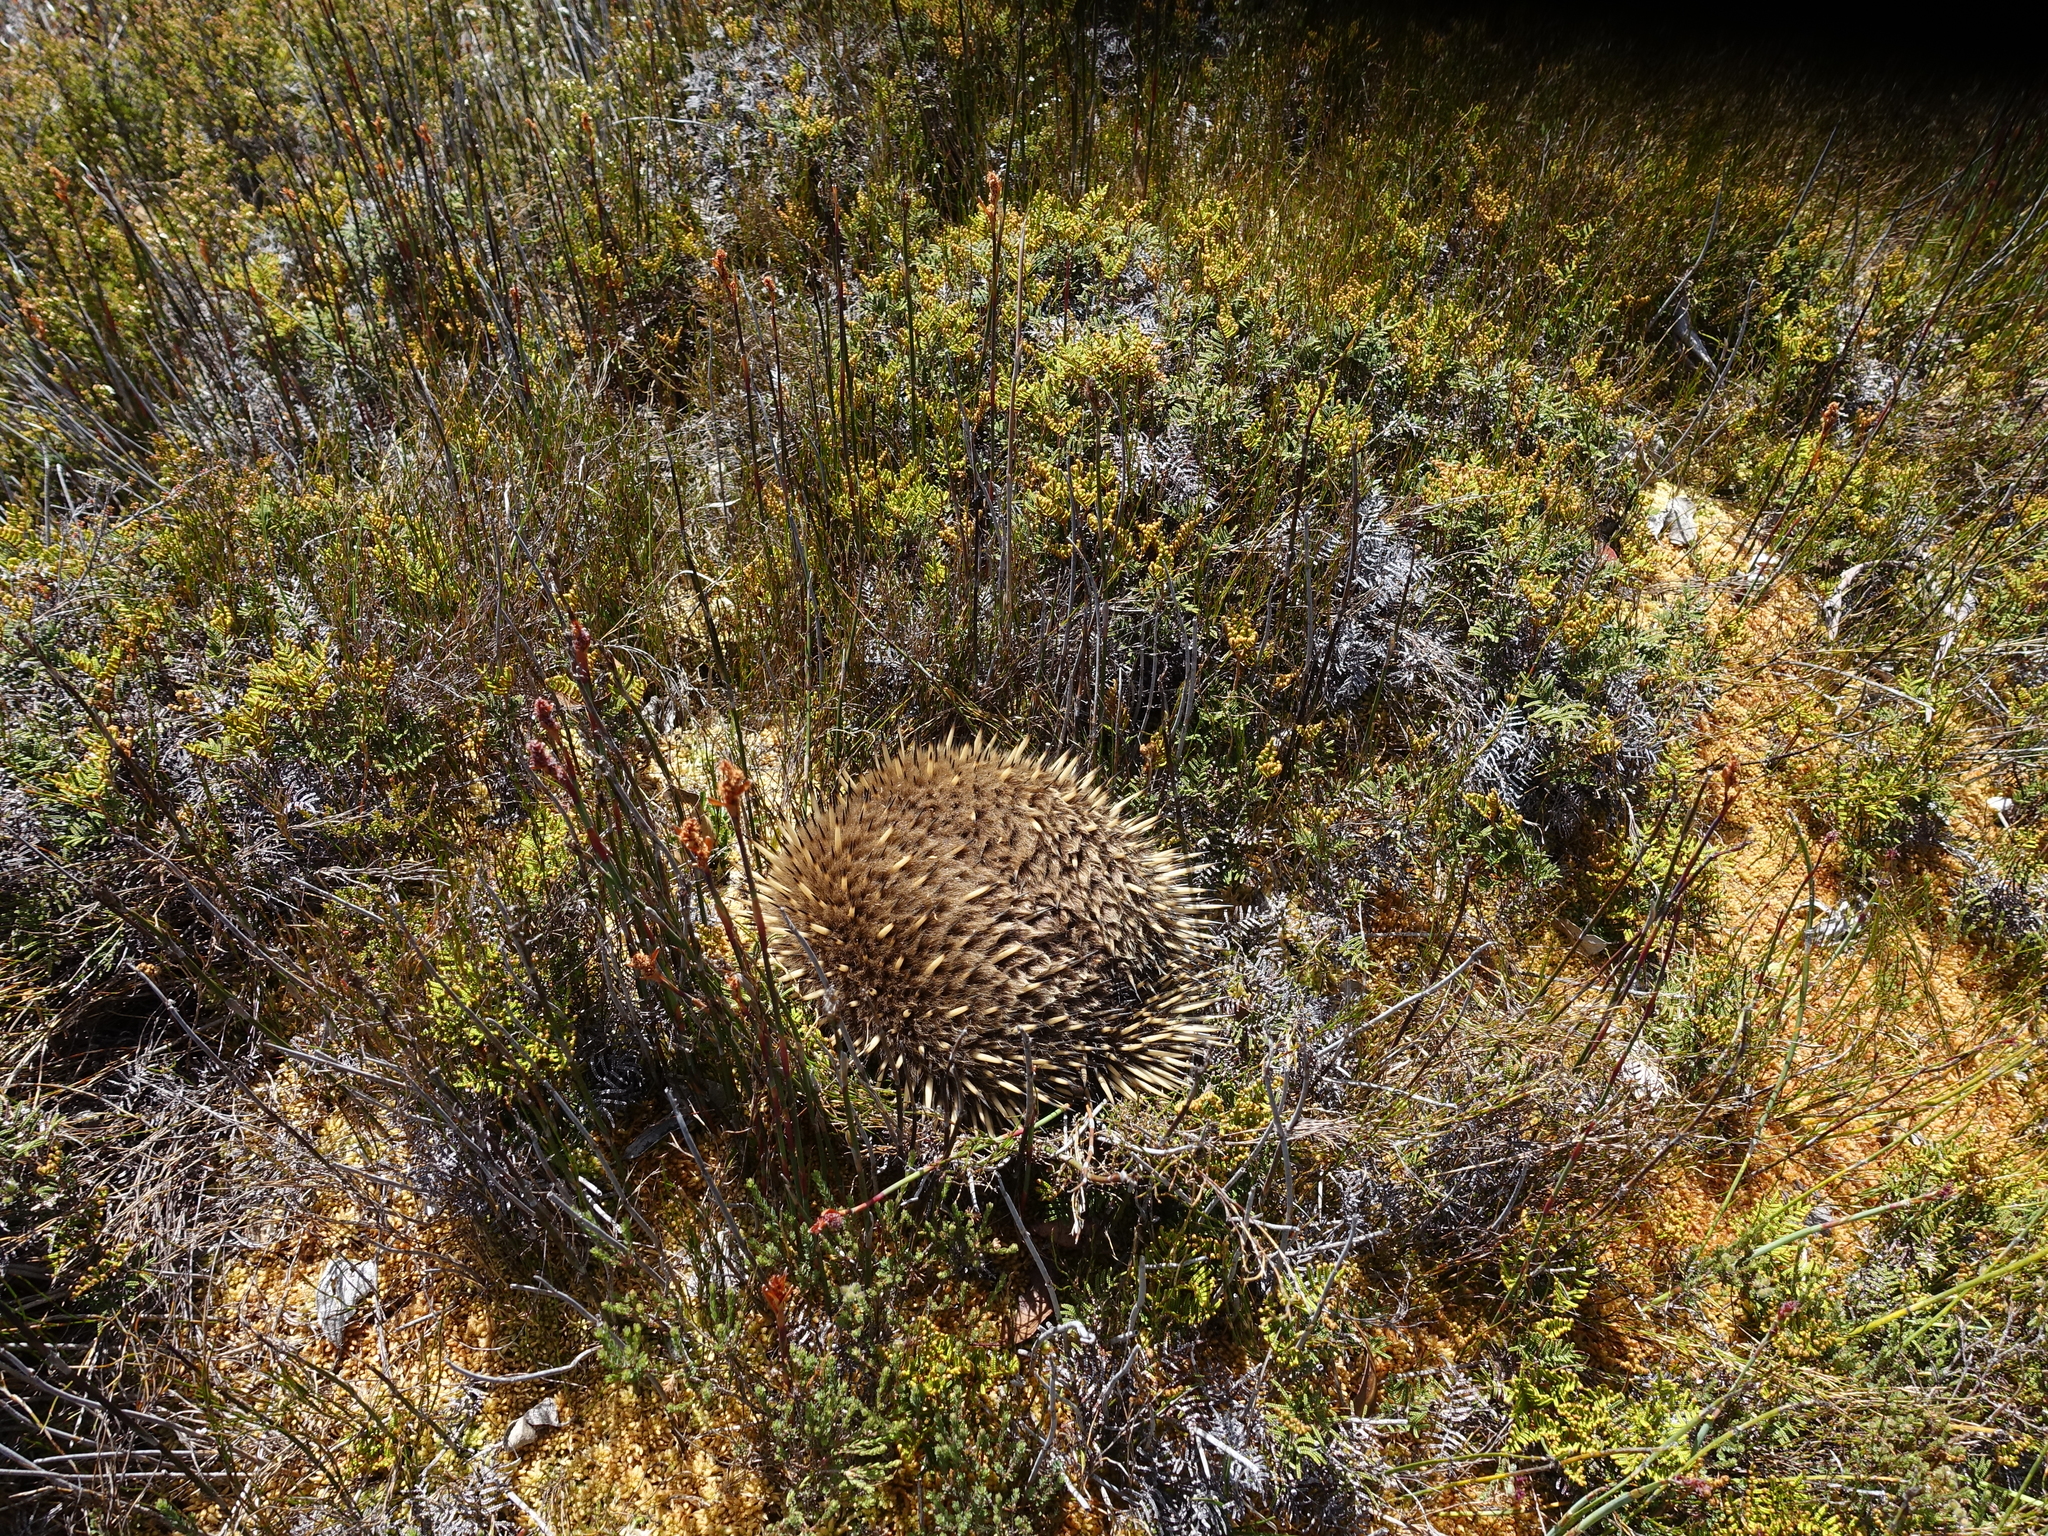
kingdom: Animalia
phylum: Chordata
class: Mammalia
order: Monotremata
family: Tachyglossidae
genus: Tachyglossus
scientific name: Tachyglossus aculeatus
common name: Short-beaked echidna
